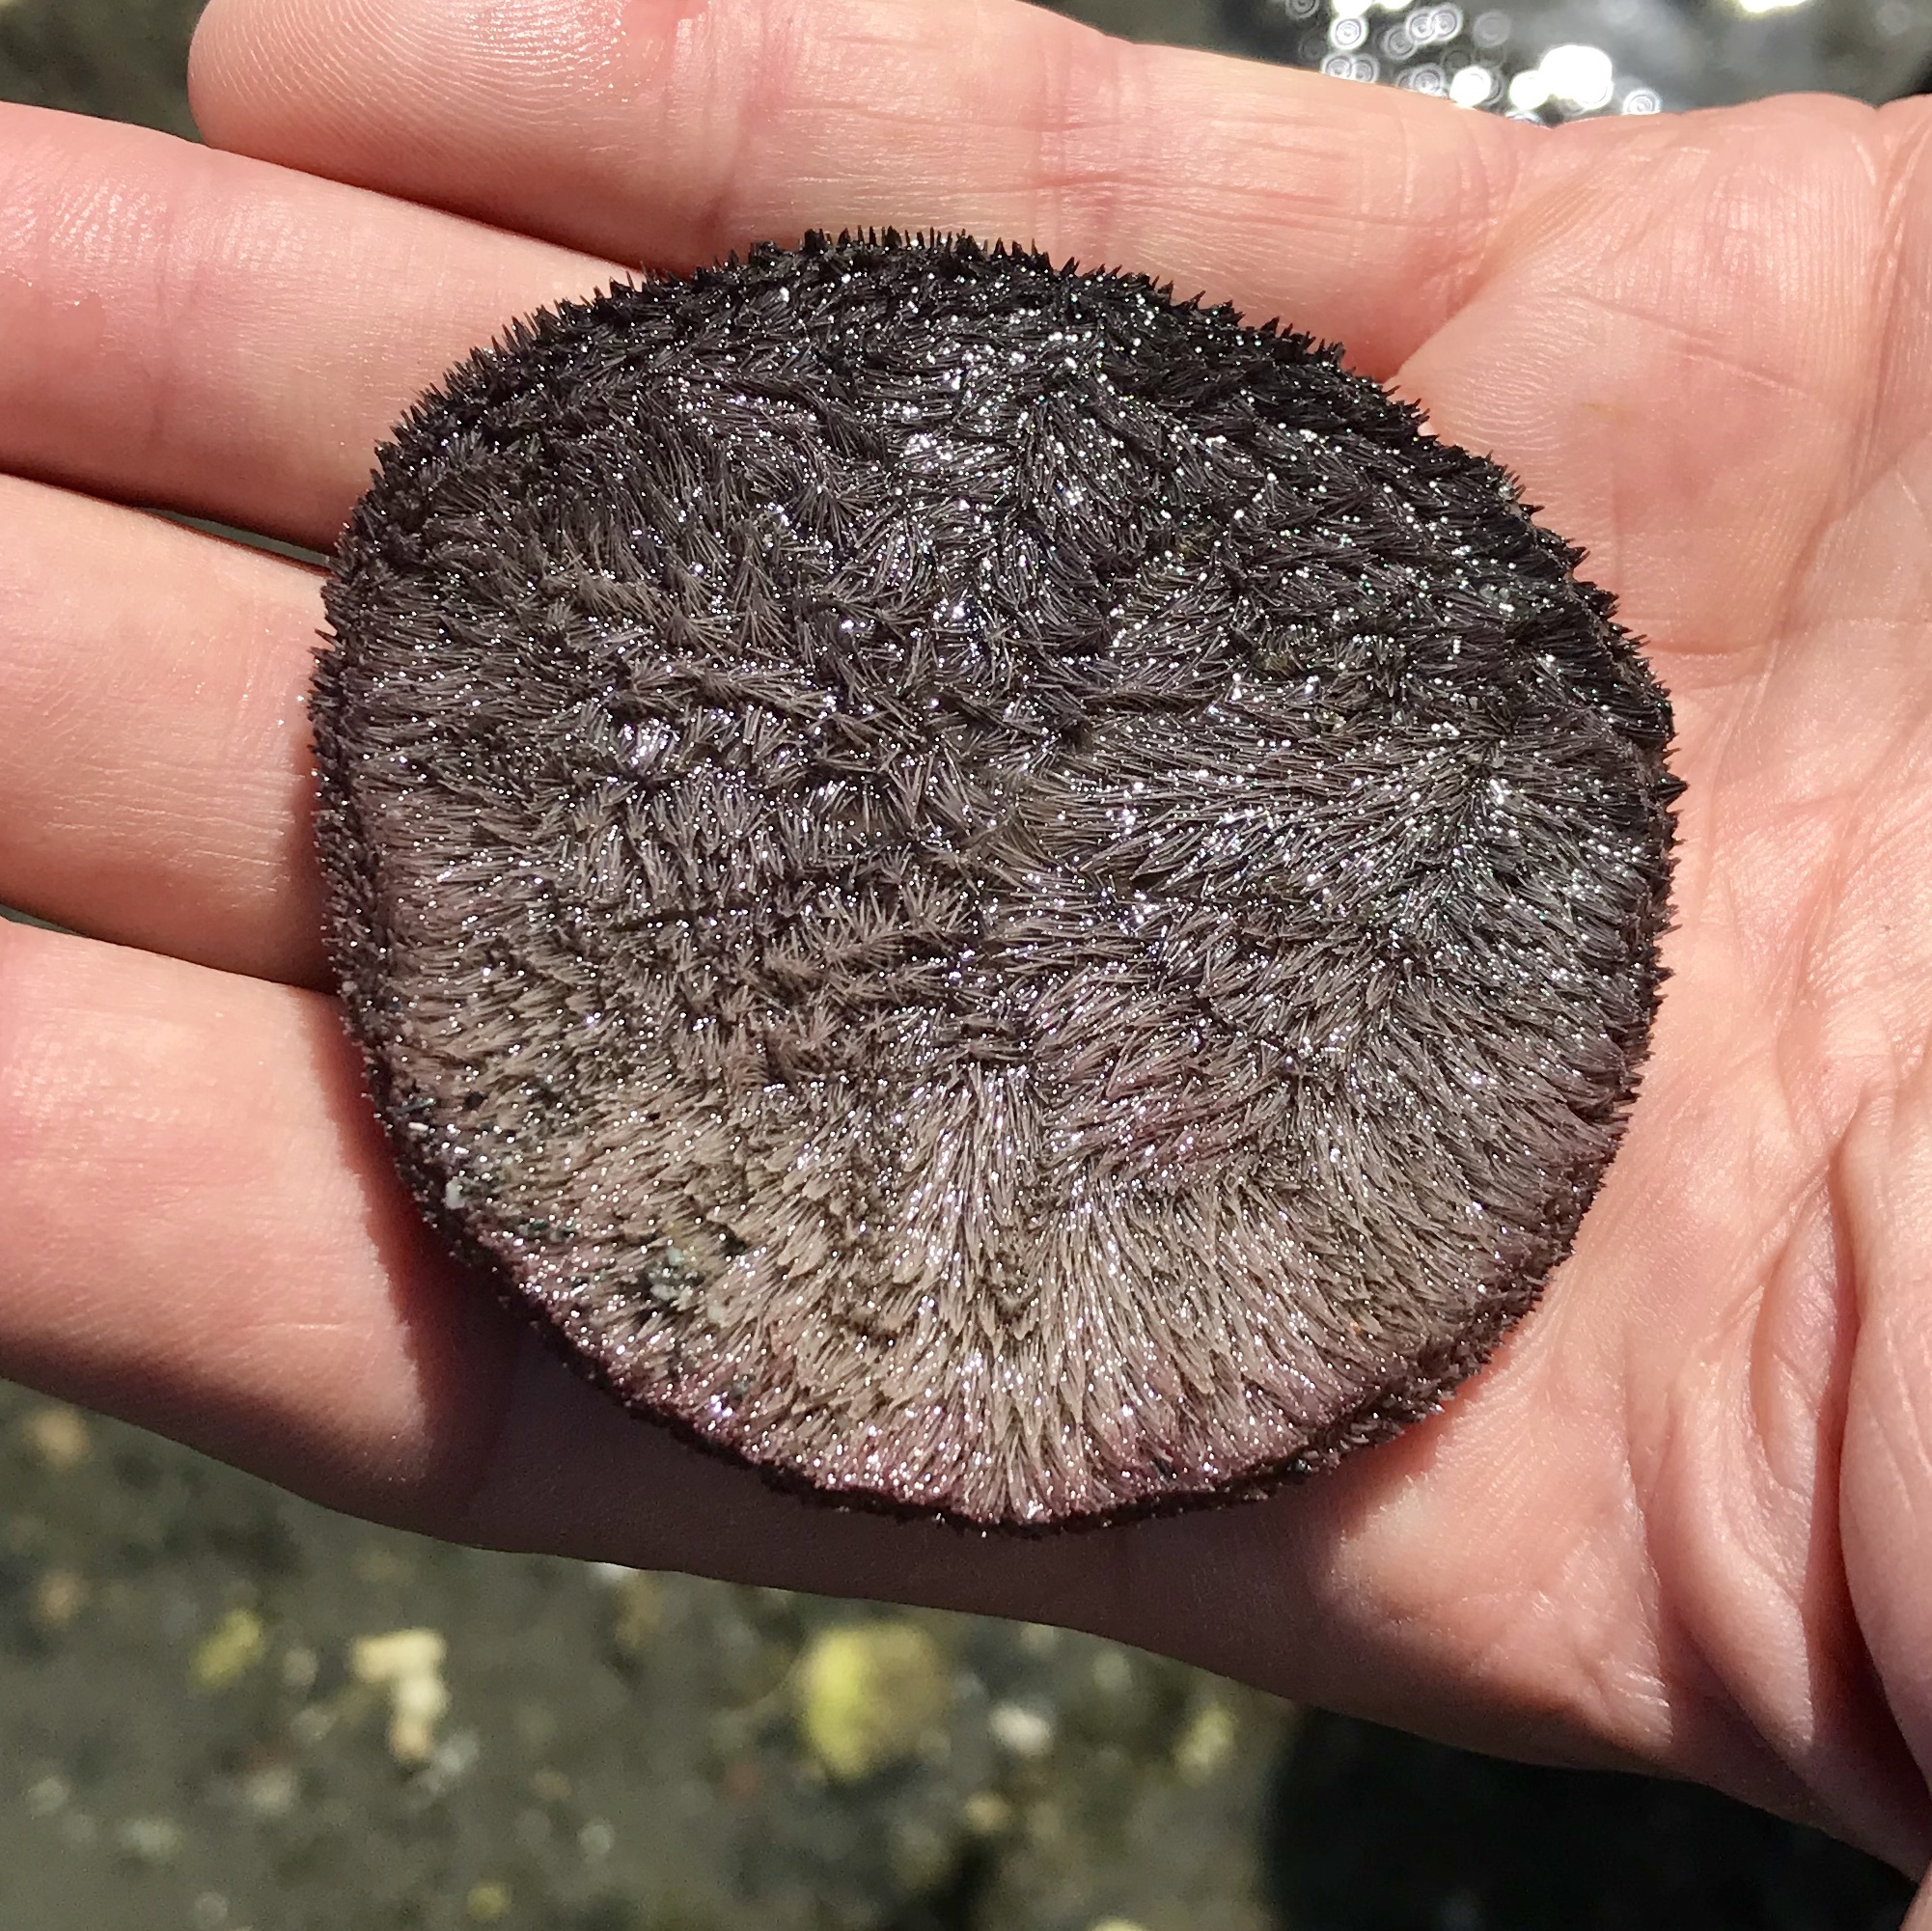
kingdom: Animalia
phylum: Echinodermata
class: Echinoidea
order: Echinolampadacea
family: Dendrasteridae
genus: Dendraster
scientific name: Dendraster excentricus
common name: Eccentric sand dollar sea urchin
